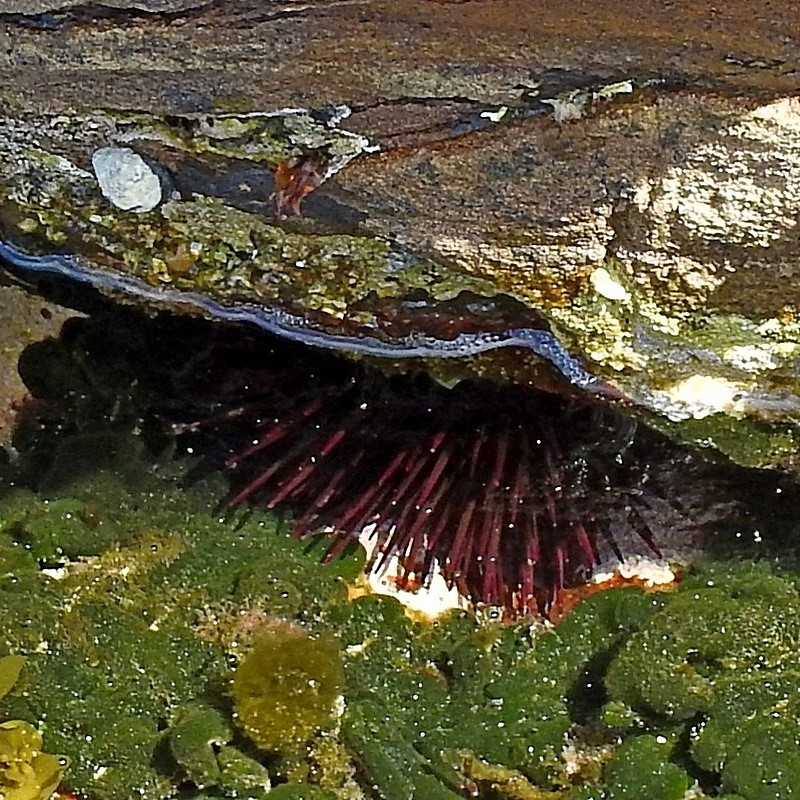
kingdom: Animalia
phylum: Echinodermata
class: Echinoidea
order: Camarodonta
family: Echinometridae
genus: Heliocidaris
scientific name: Heliocidaris tuberculata
